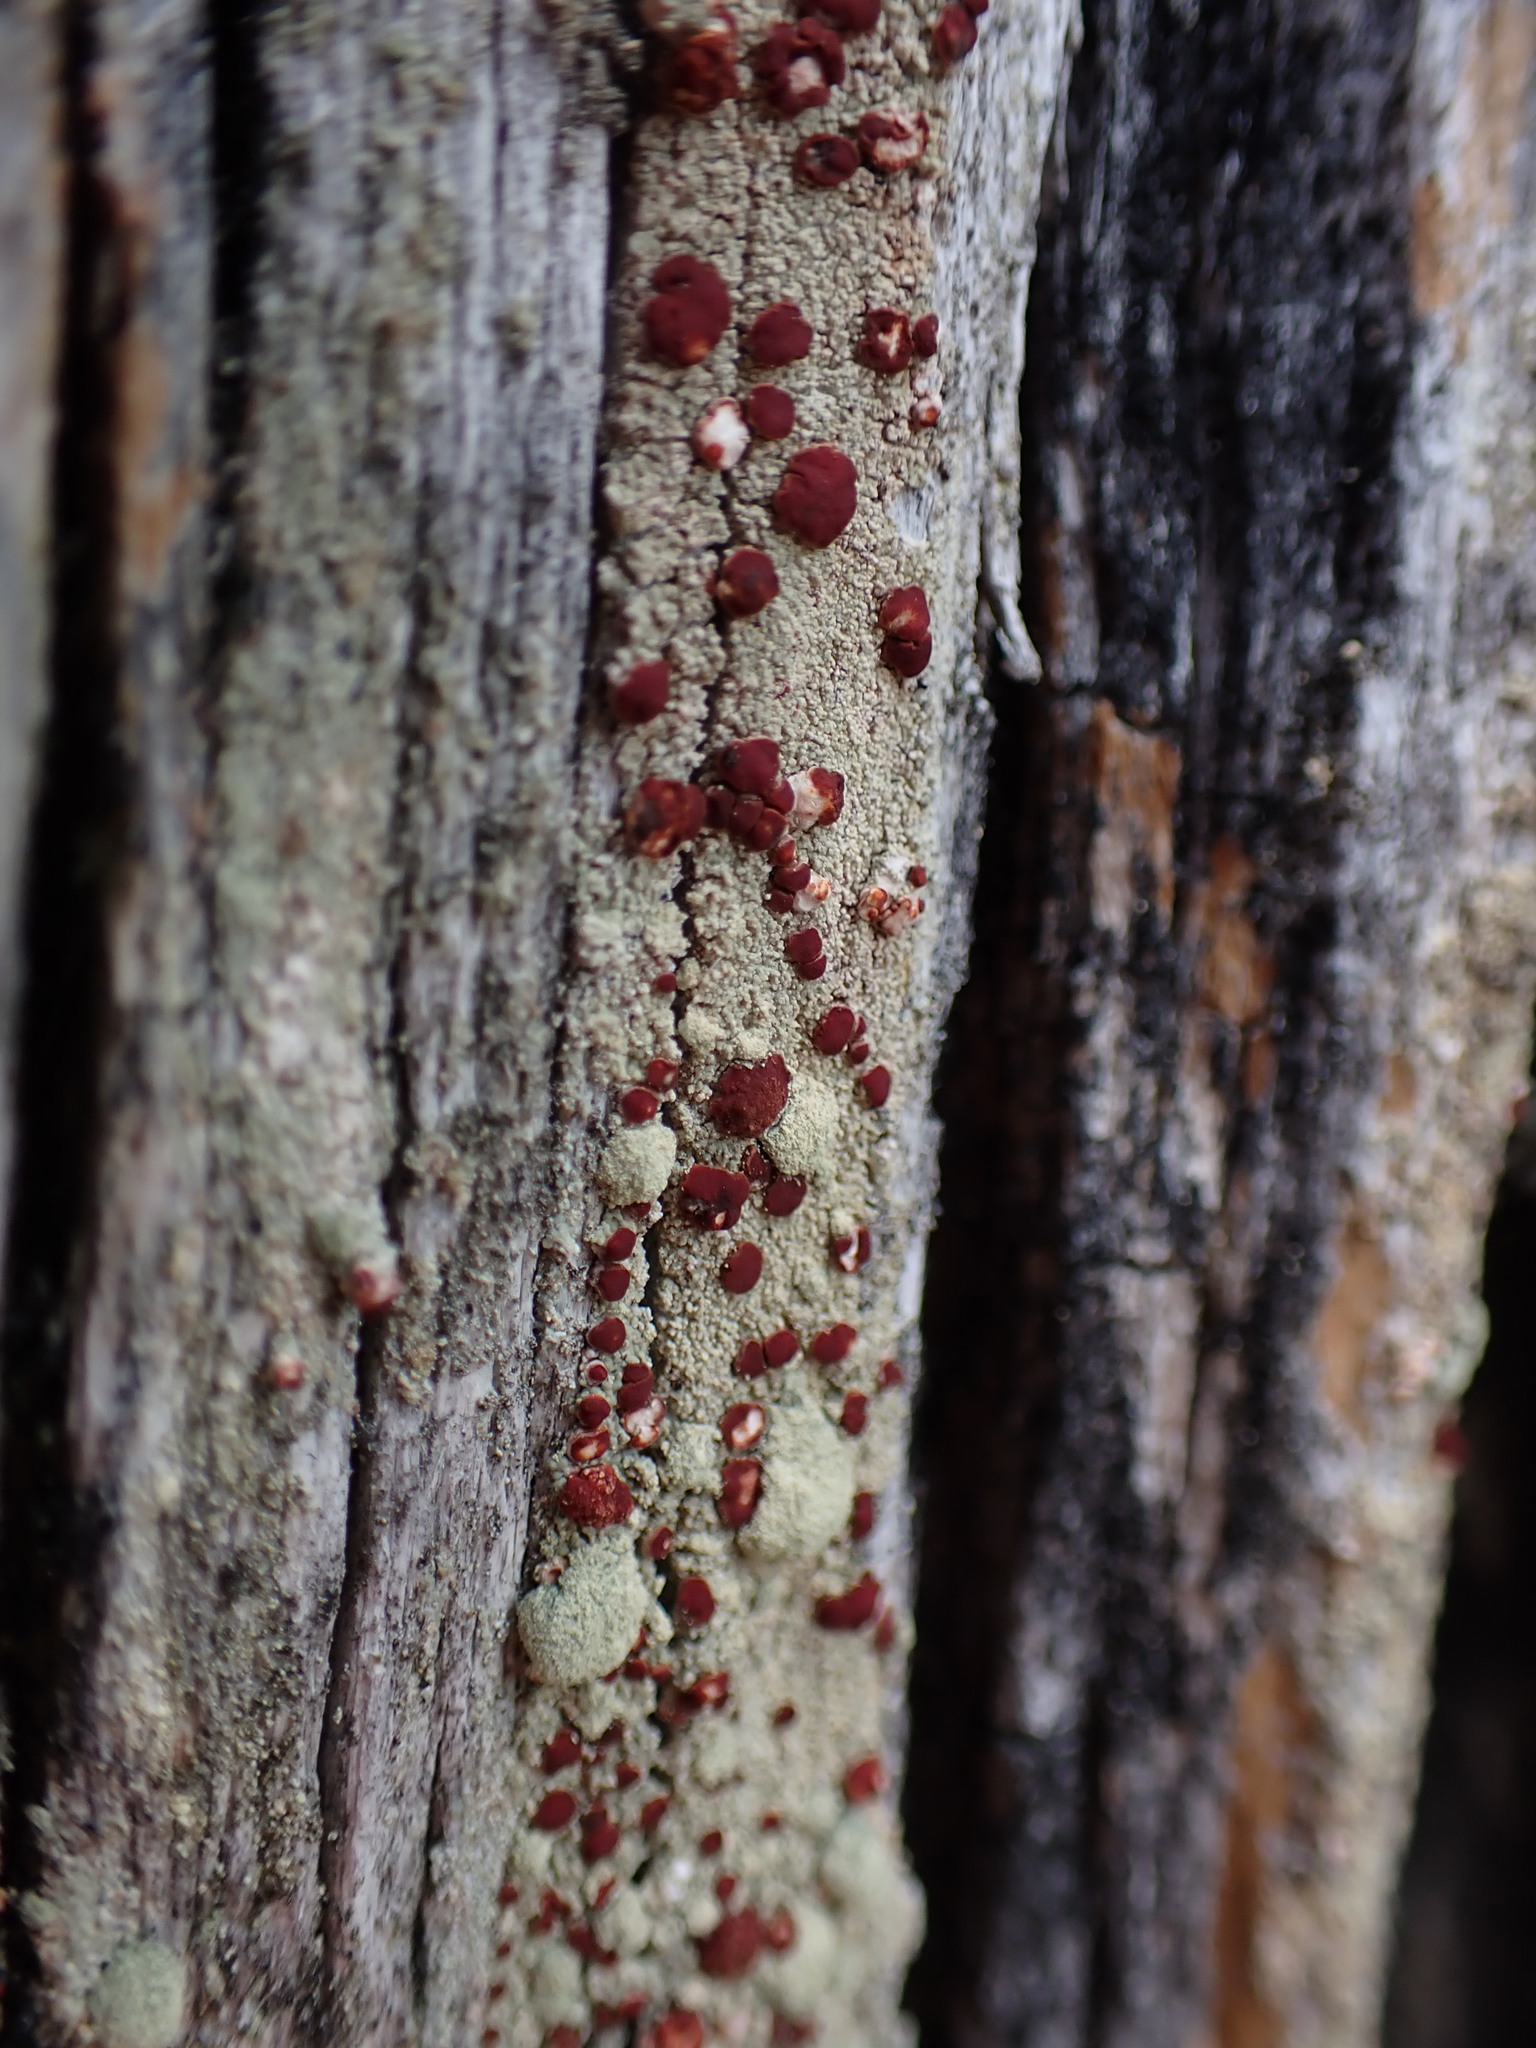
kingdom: Fungi
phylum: Ascomycota
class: Lecanoromycetes
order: Lecanorales
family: Ramalinaceae
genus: Bilimbia
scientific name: Bilimbia rubricosa
